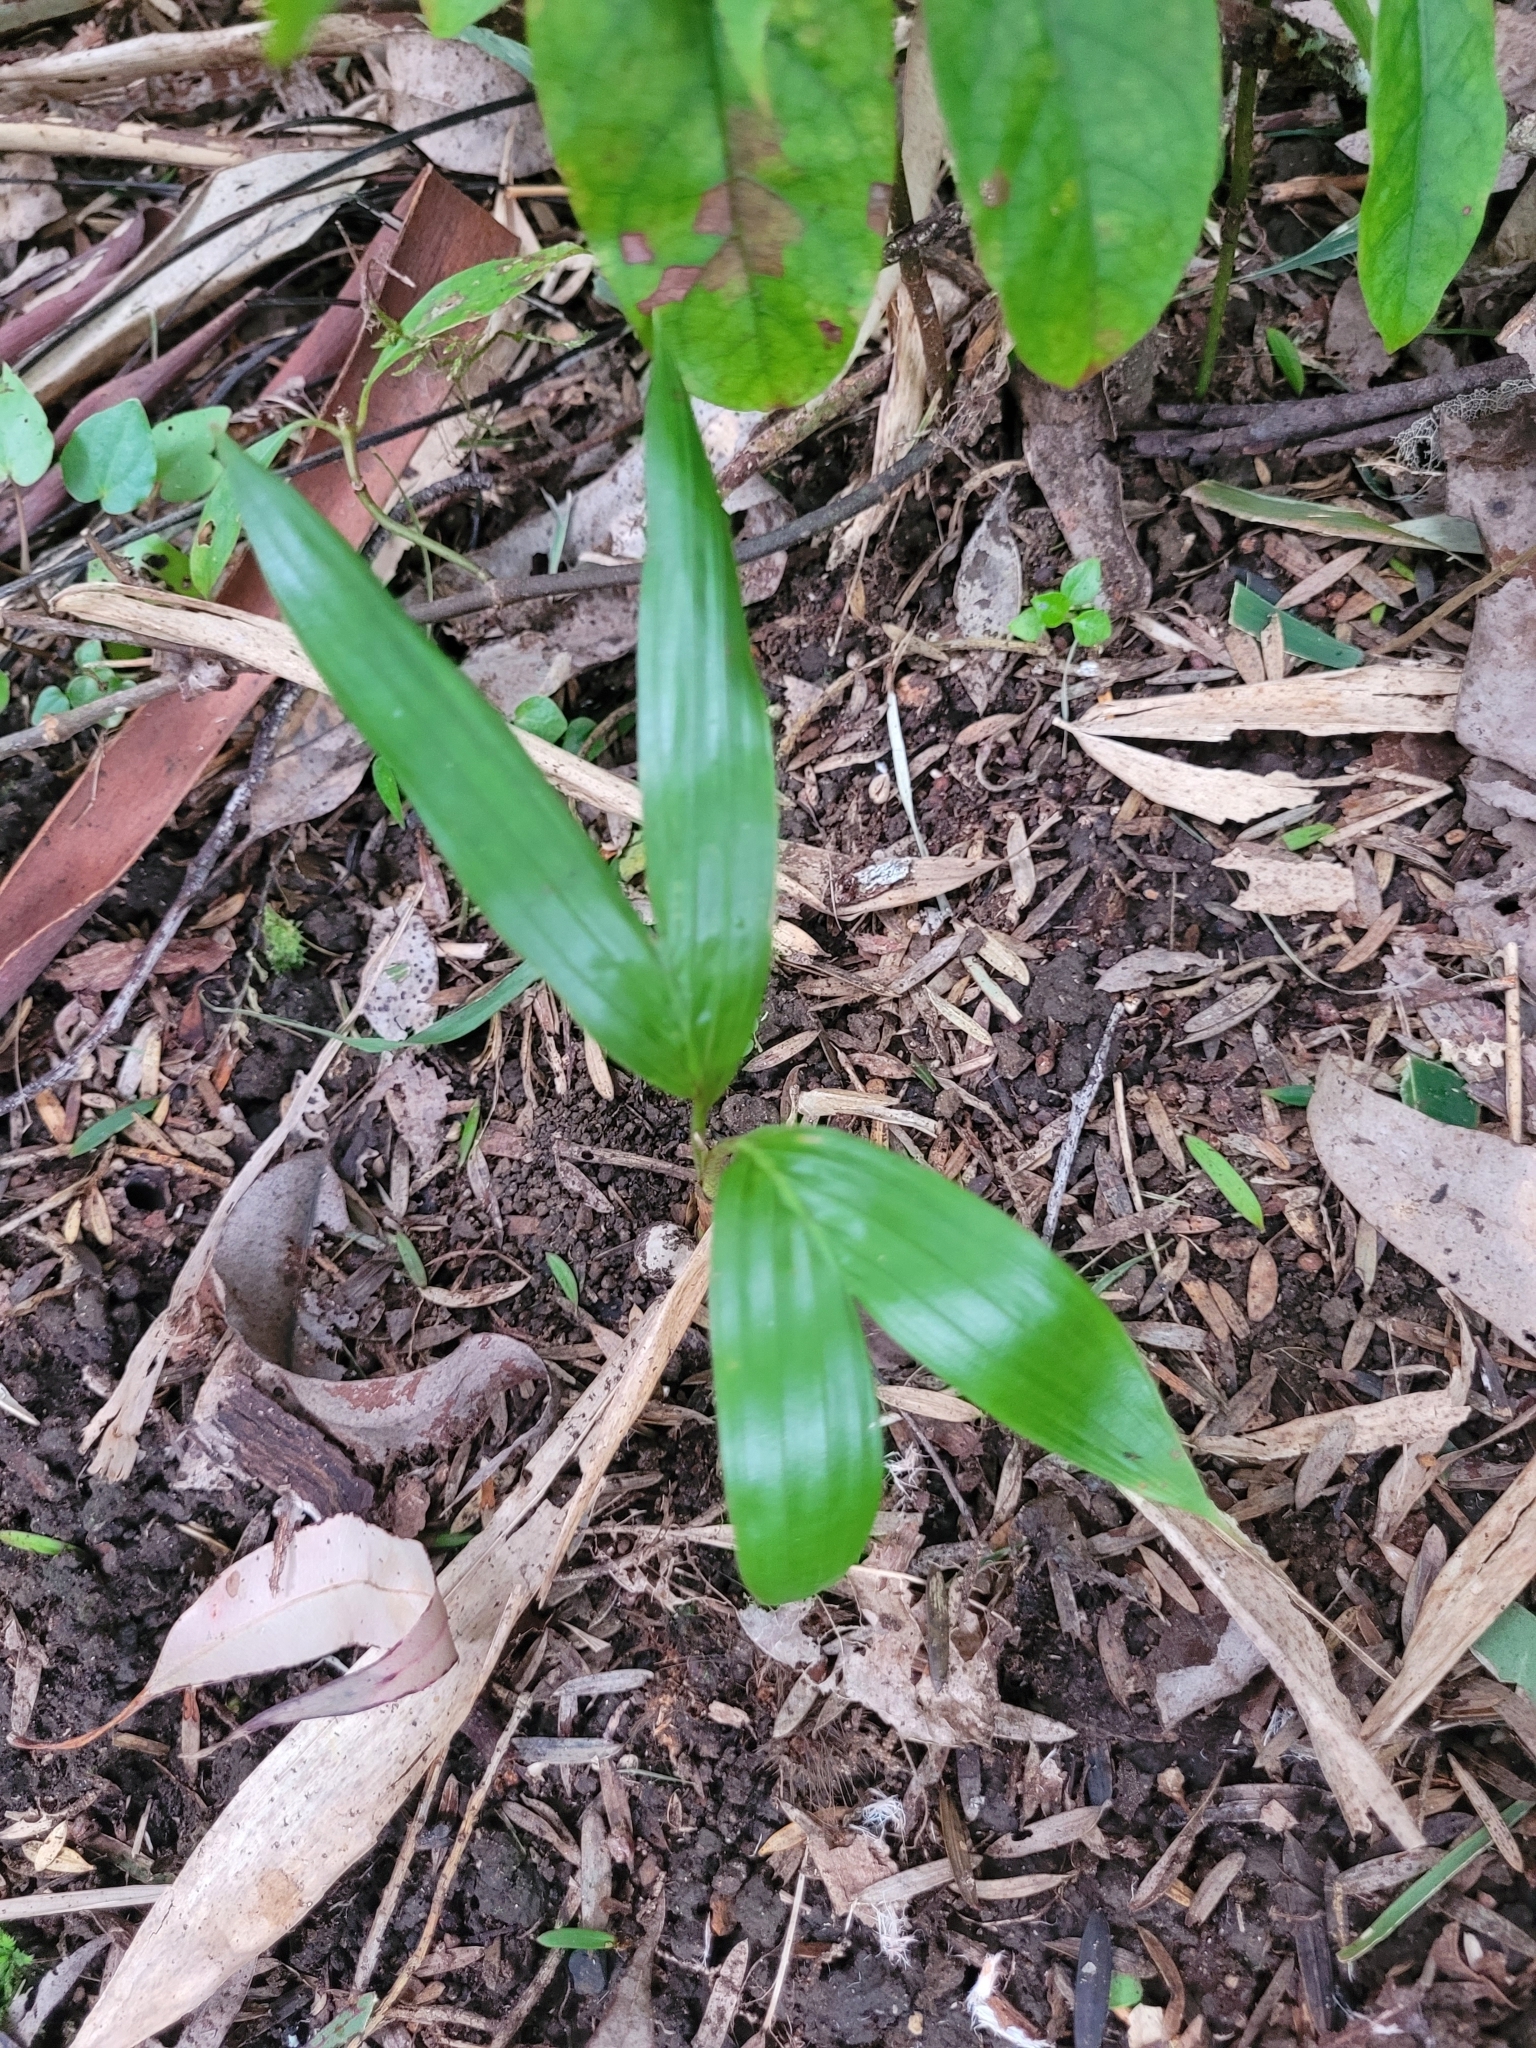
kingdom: Plantae
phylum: Tracheophyta
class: Liliopsida
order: Arecales
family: Arecaceae
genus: Archontophoenix
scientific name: Archontophoenix cunninghamiana
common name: Piccabeen bangalow palm
